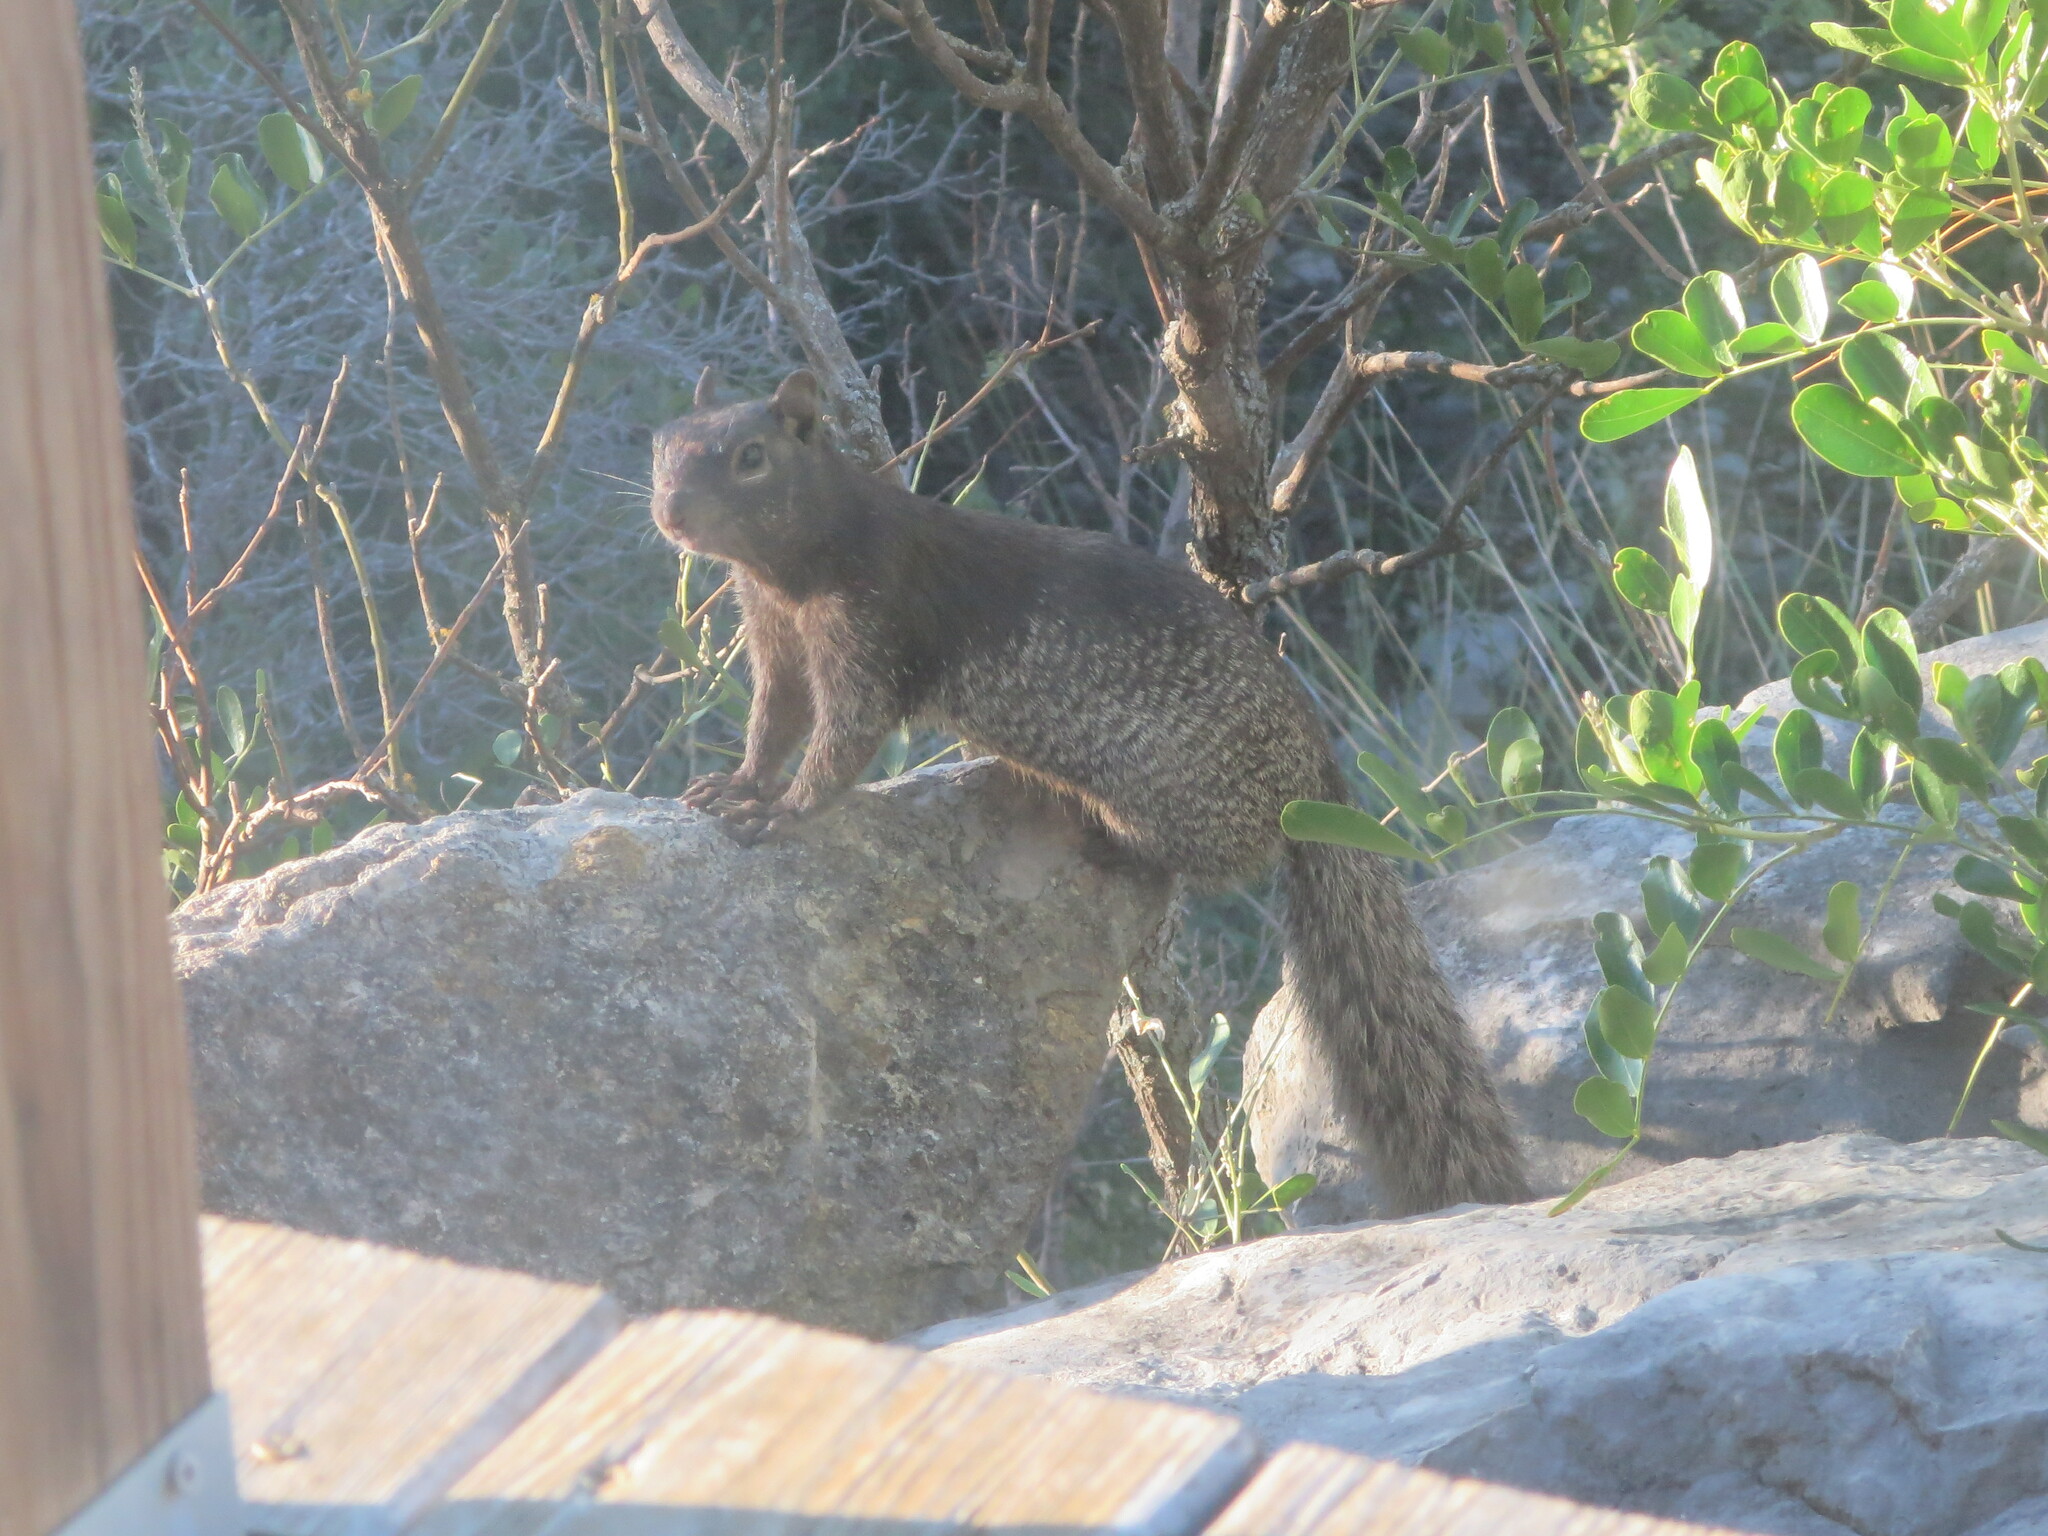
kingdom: Animalia
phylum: Chordata
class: Mammalia
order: Rodentia
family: Sciuridae
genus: Otospermophilus
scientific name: Otospermophilus variegatus
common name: Rock squirrel
